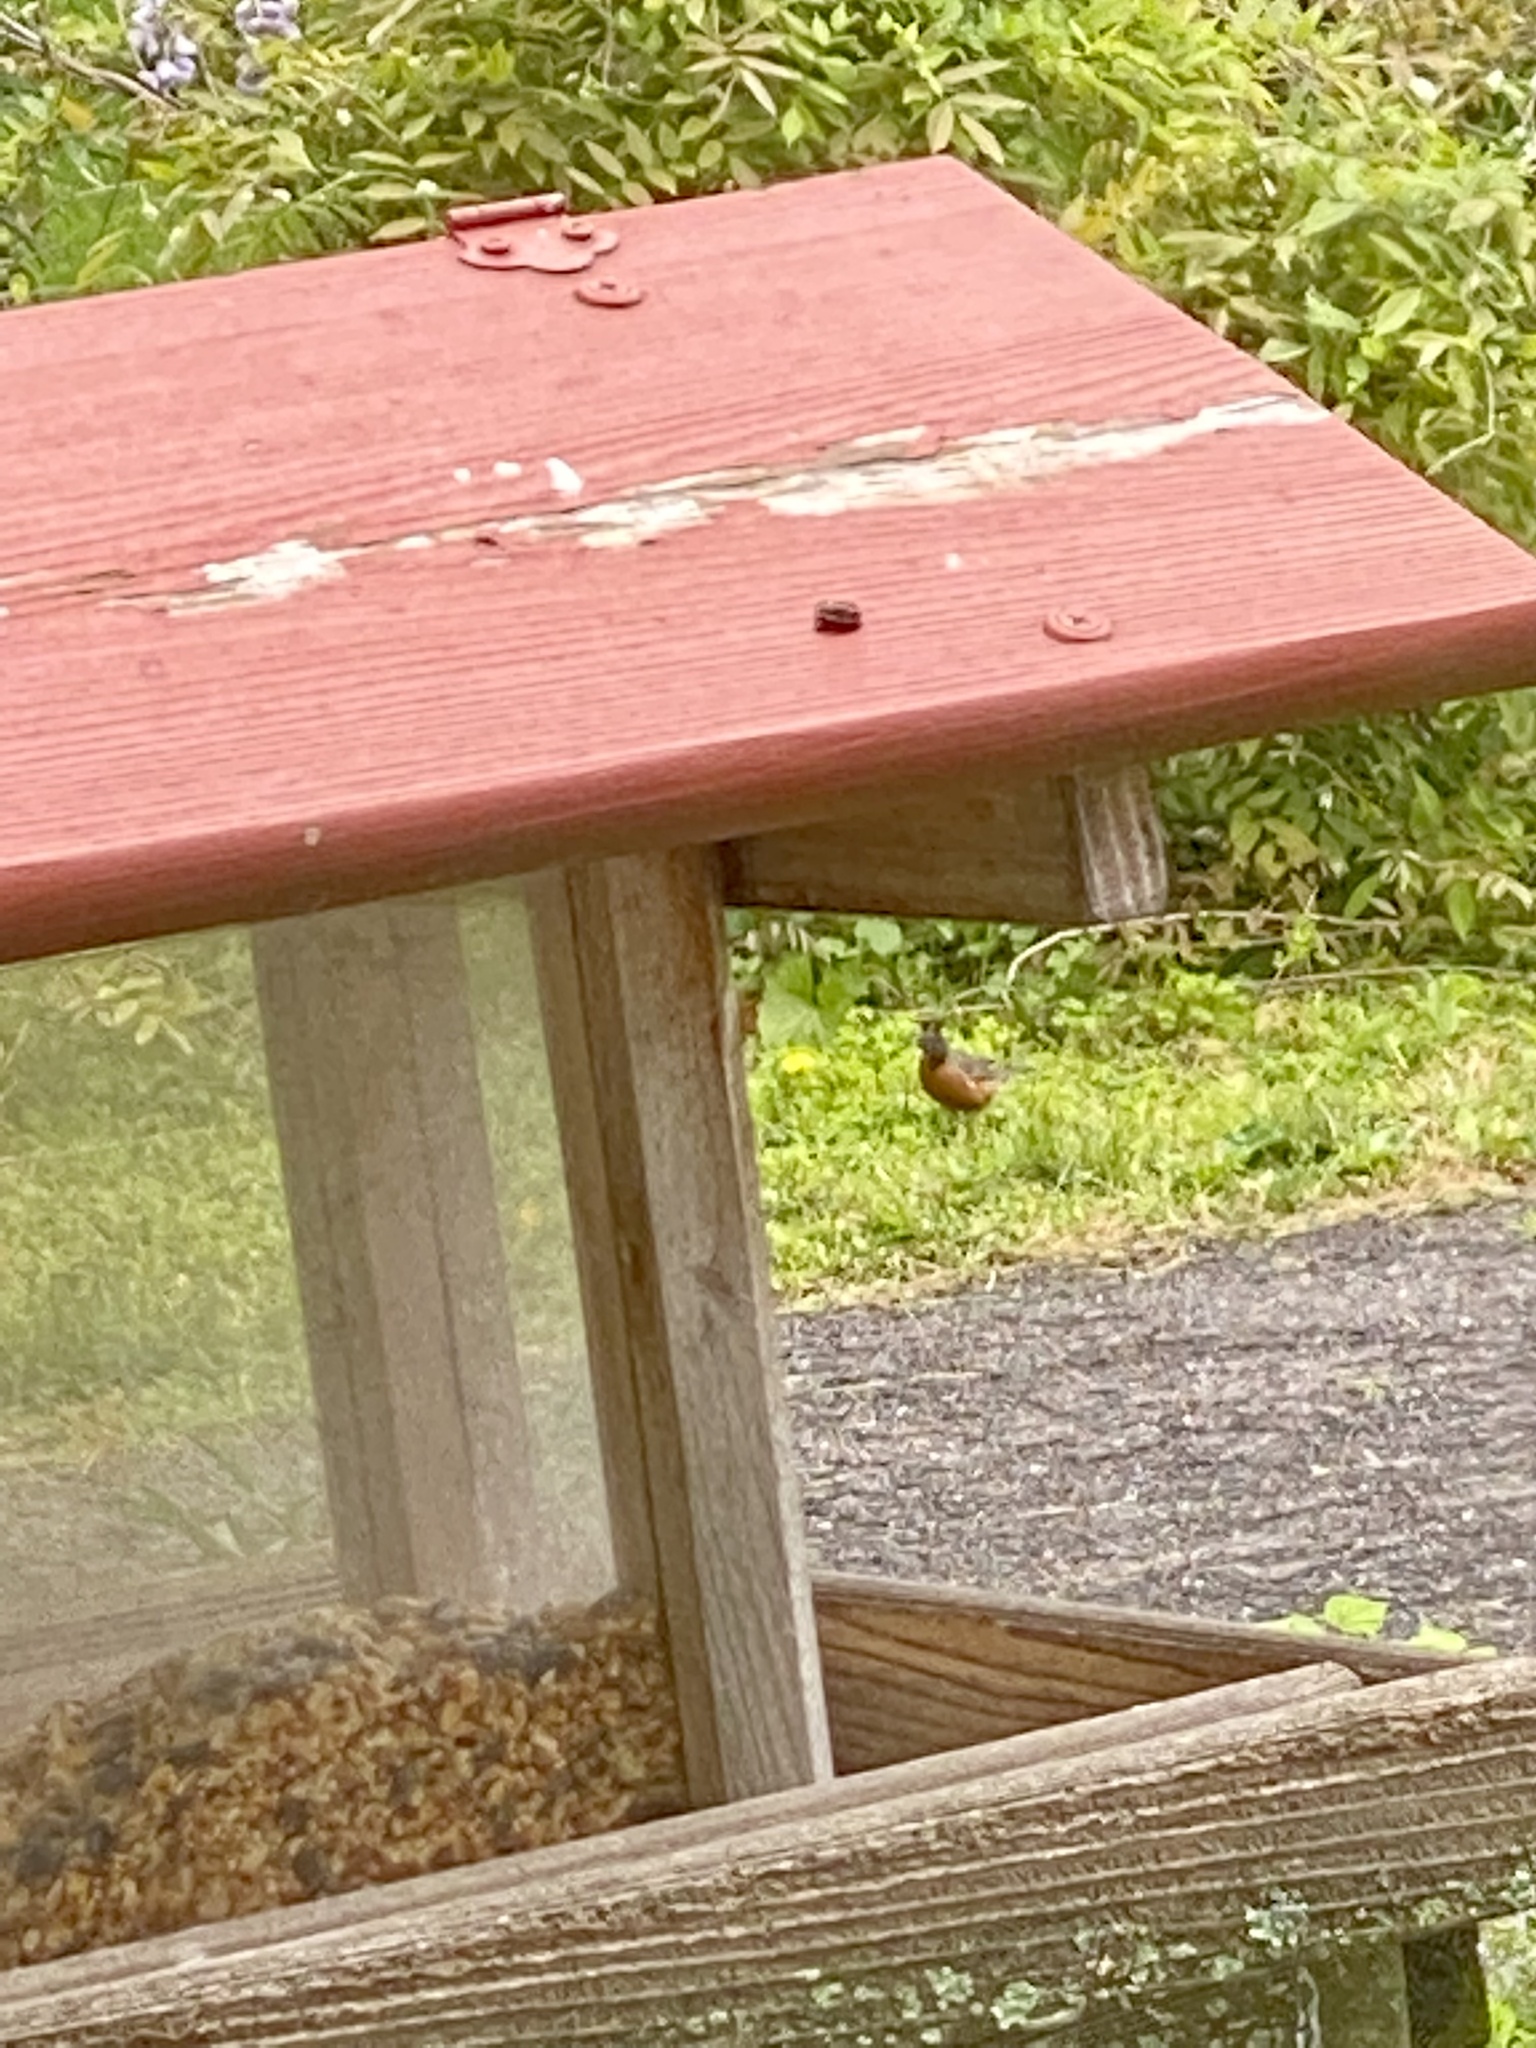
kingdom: Animalia
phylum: Chordata
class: Aves
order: Passeriformes
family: Turdidae
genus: Turdus
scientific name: Turdus migratorius
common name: American robin
